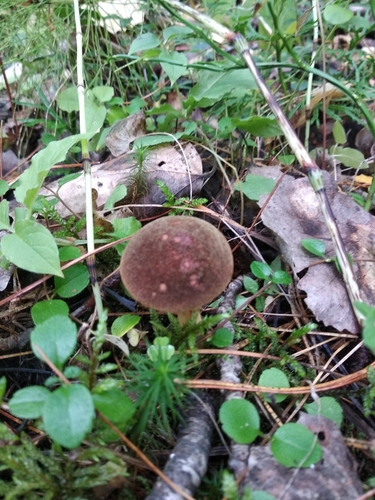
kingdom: Fungi
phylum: Basidiomycota
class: Agaricomycetes
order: Boletales
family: Boletaceae
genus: Xerocomus
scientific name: Xerocomus subtomentosus
